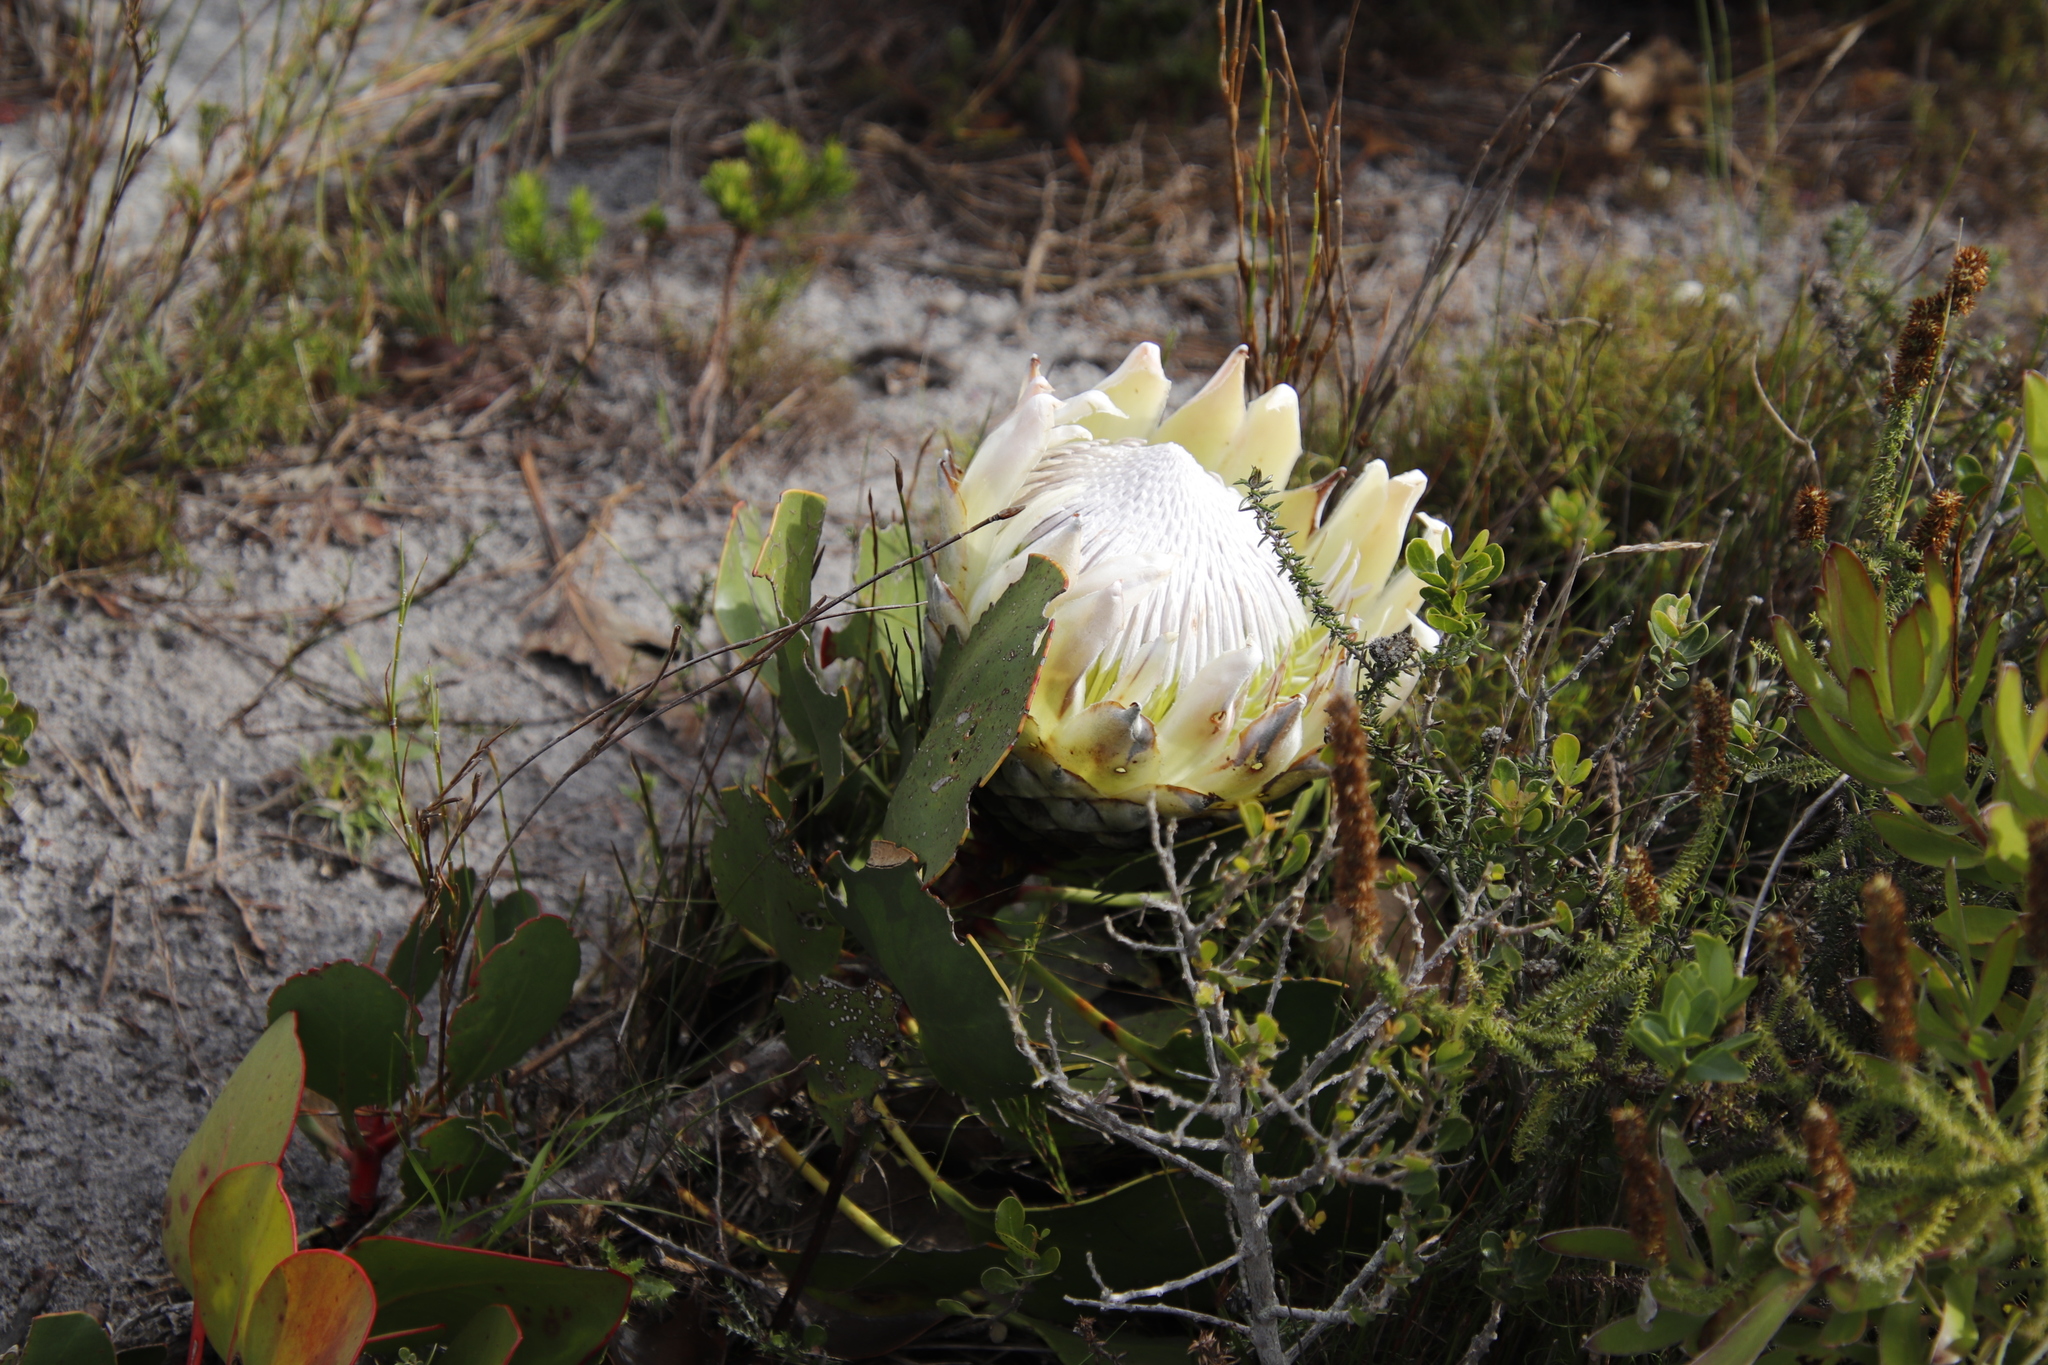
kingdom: Plantae
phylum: Tracheophyta
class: Magnoliopsida
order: Proteales
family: Proteaceae
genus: Protea
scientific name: Protea cynaroides
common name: King protea
